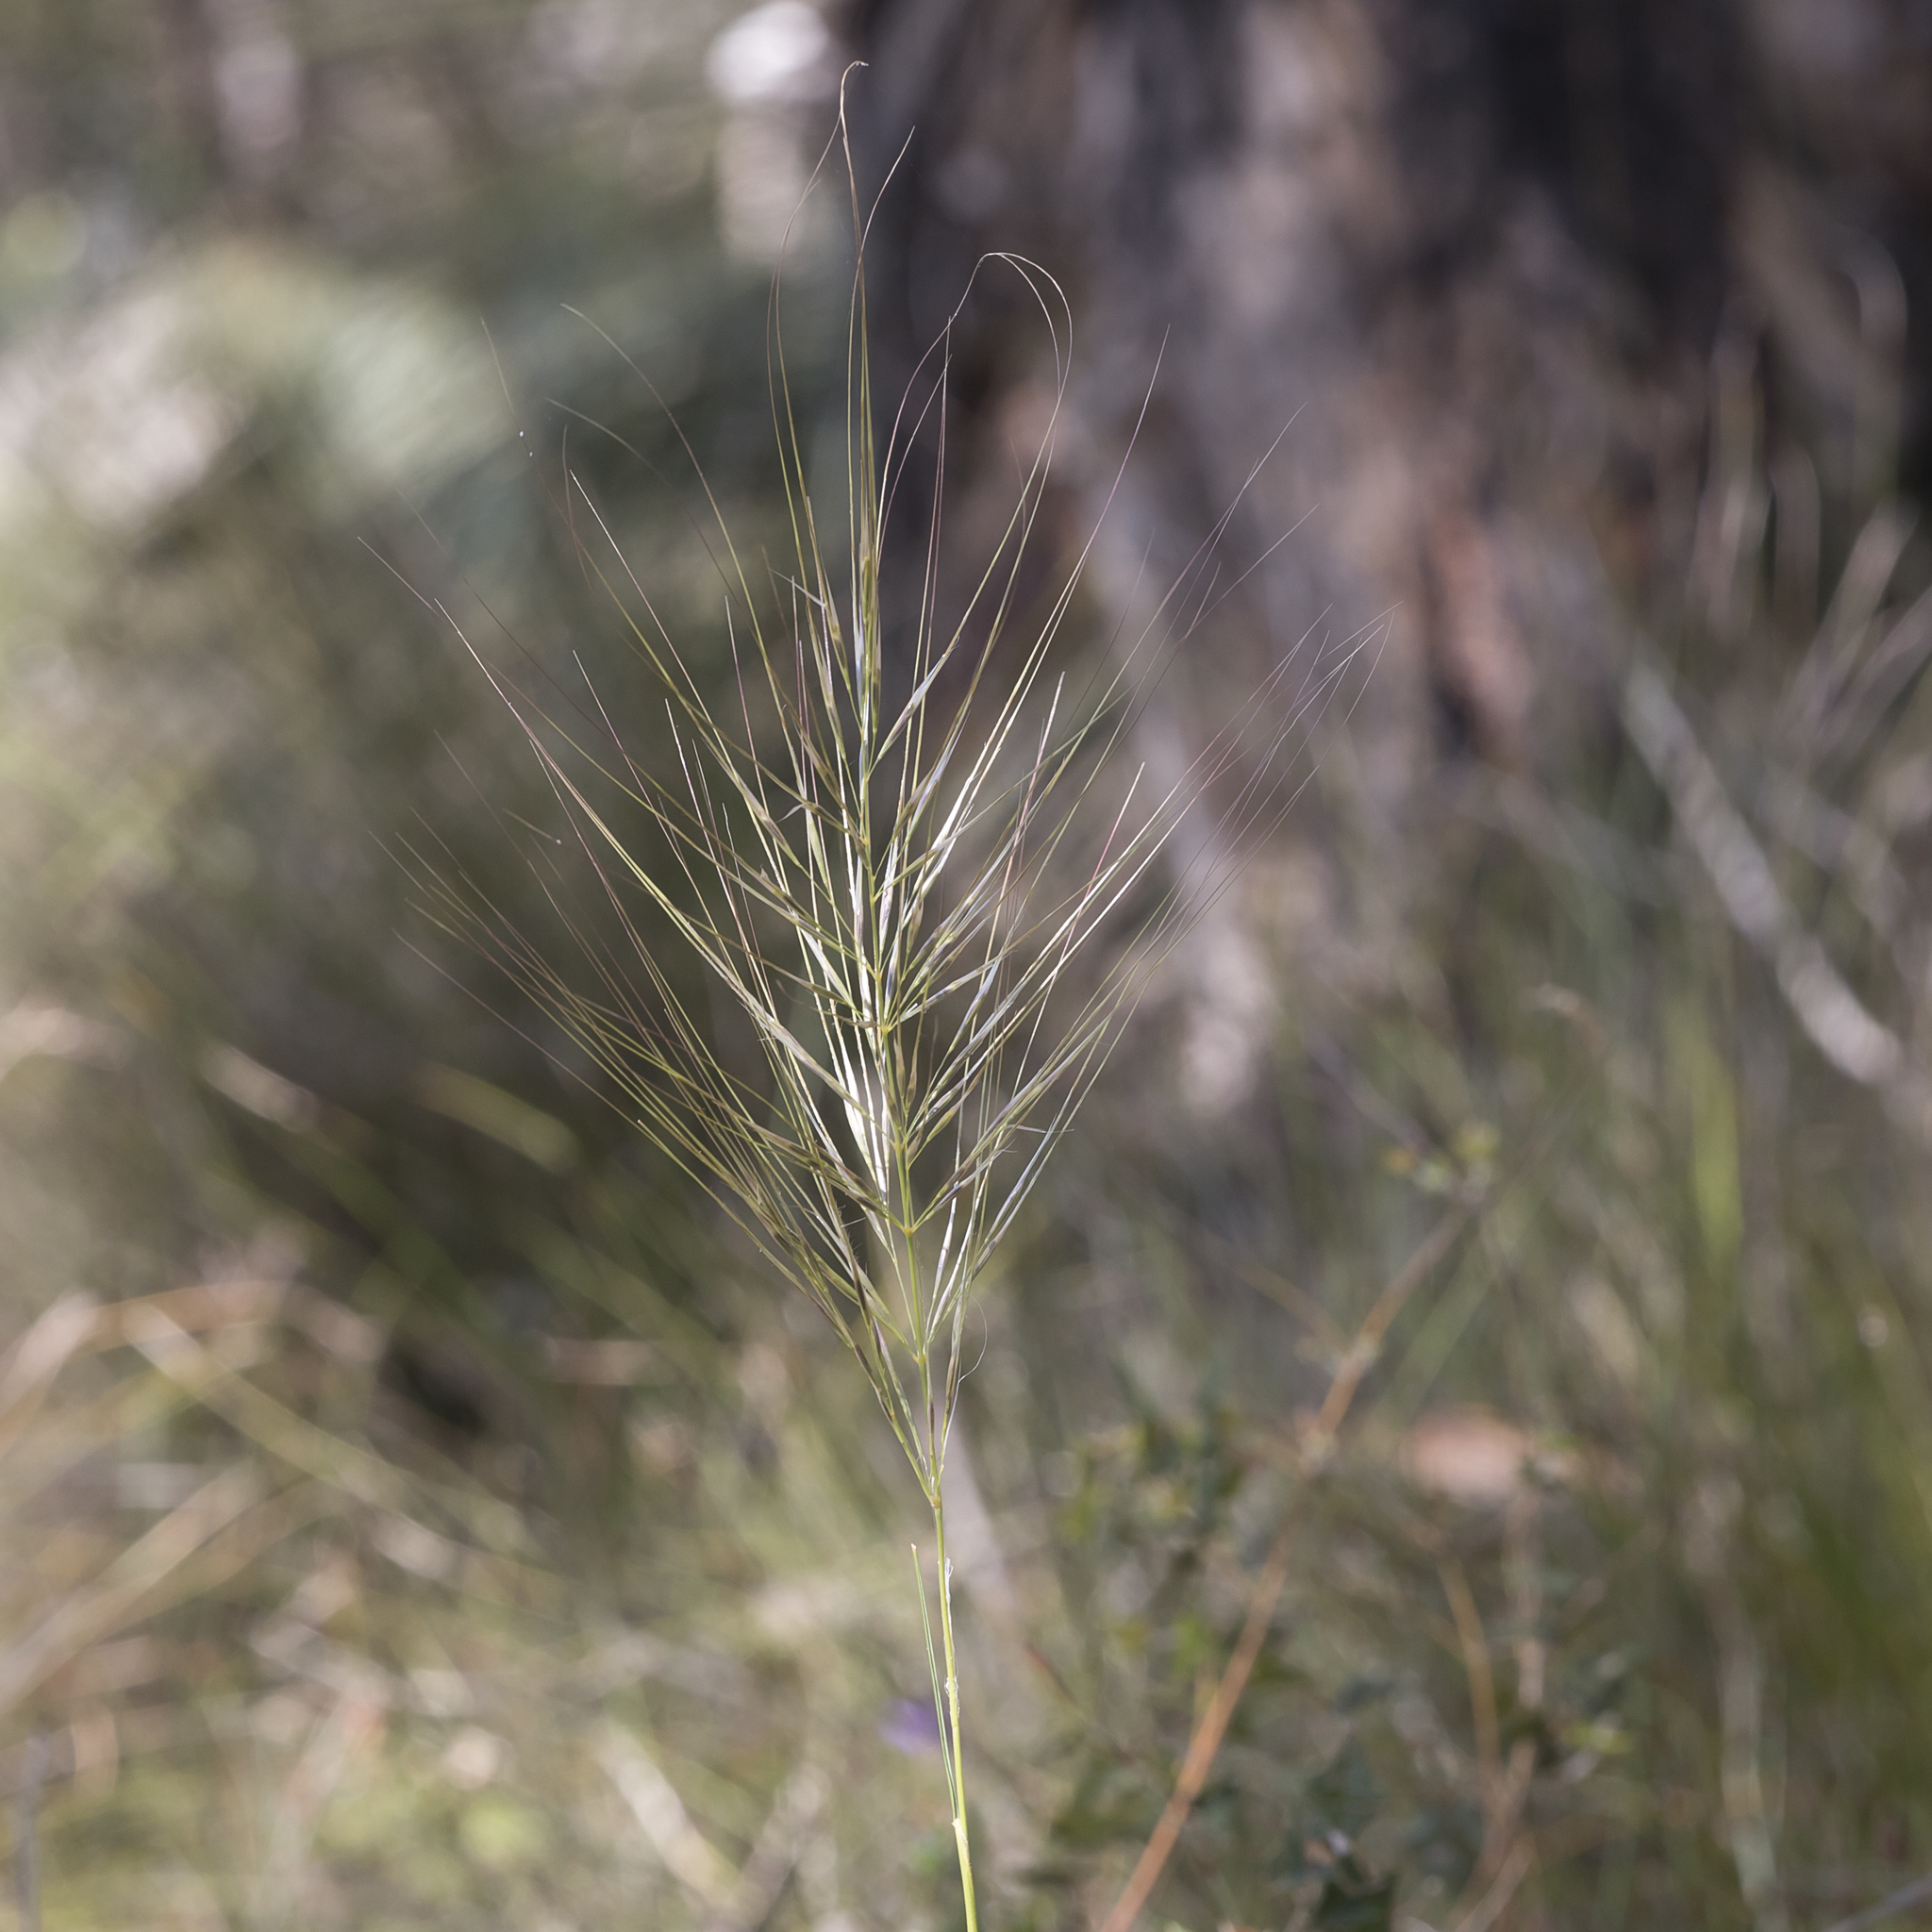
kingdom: Plantae
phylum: Tracheophyta
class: Liliopsida
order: Poales
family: Poaceae
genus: Austrostipa
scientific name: Austrostipa mollis
